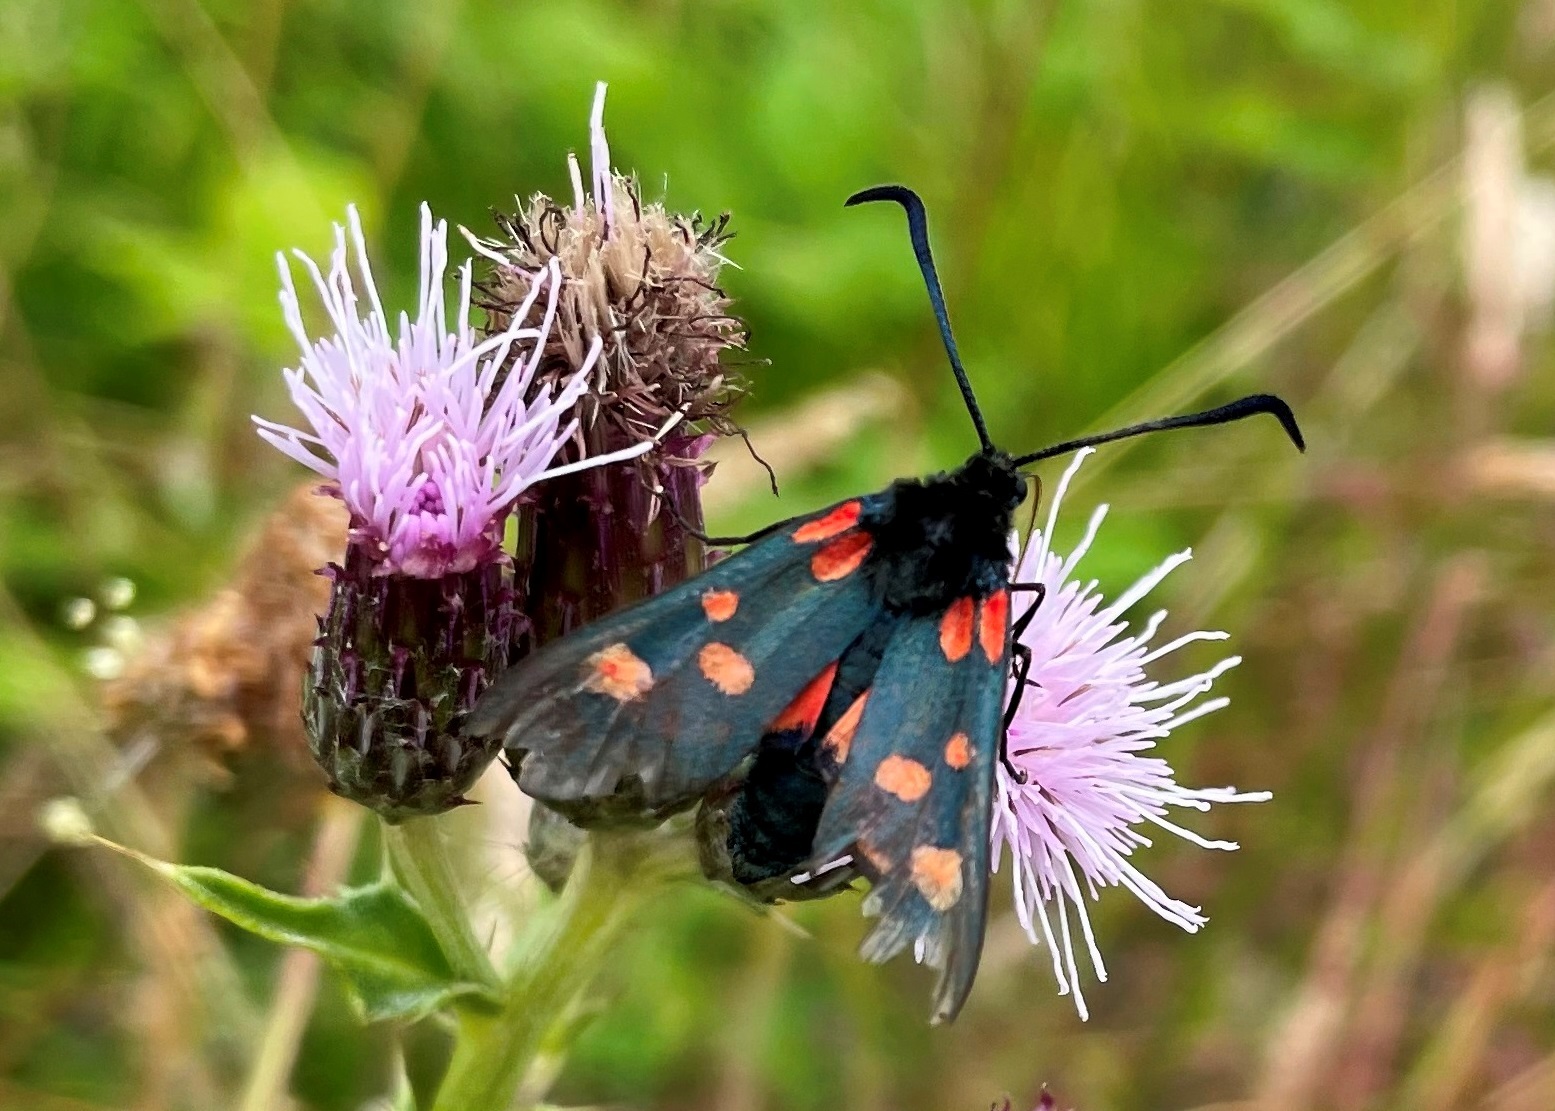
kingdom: Animalia
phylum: Arthropoda
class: Insecta
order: Lepidoptera
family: Zygaenidae
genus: Zygaena
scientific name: Zygaena filipendulae
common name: Six-spot burnet
